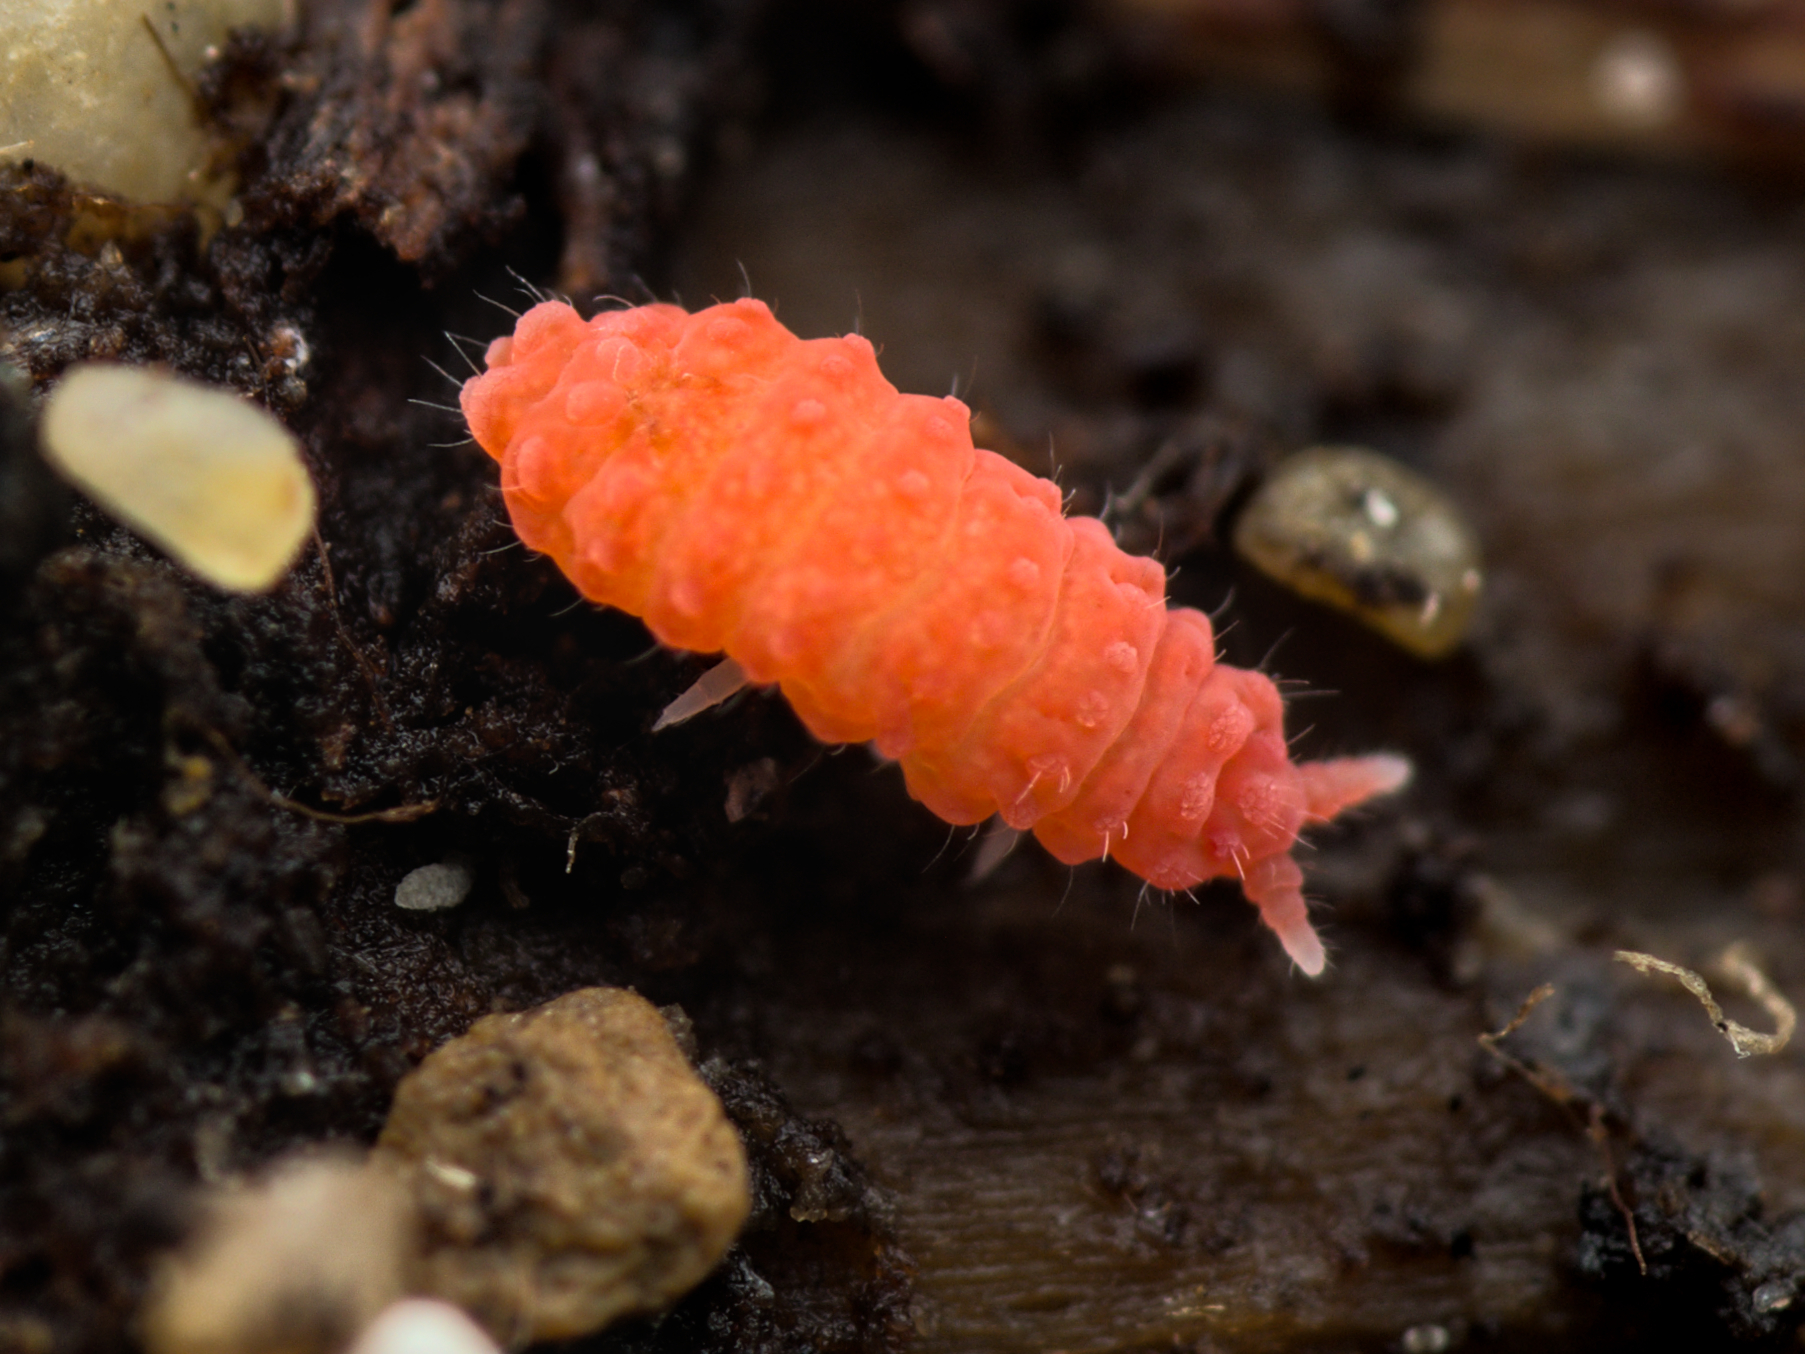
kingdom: Animalia
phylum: Arthropoda
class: Collembola
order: Poduromorpha
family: Neanuridae
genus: Bilobella
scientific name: Bilobella braunerae
